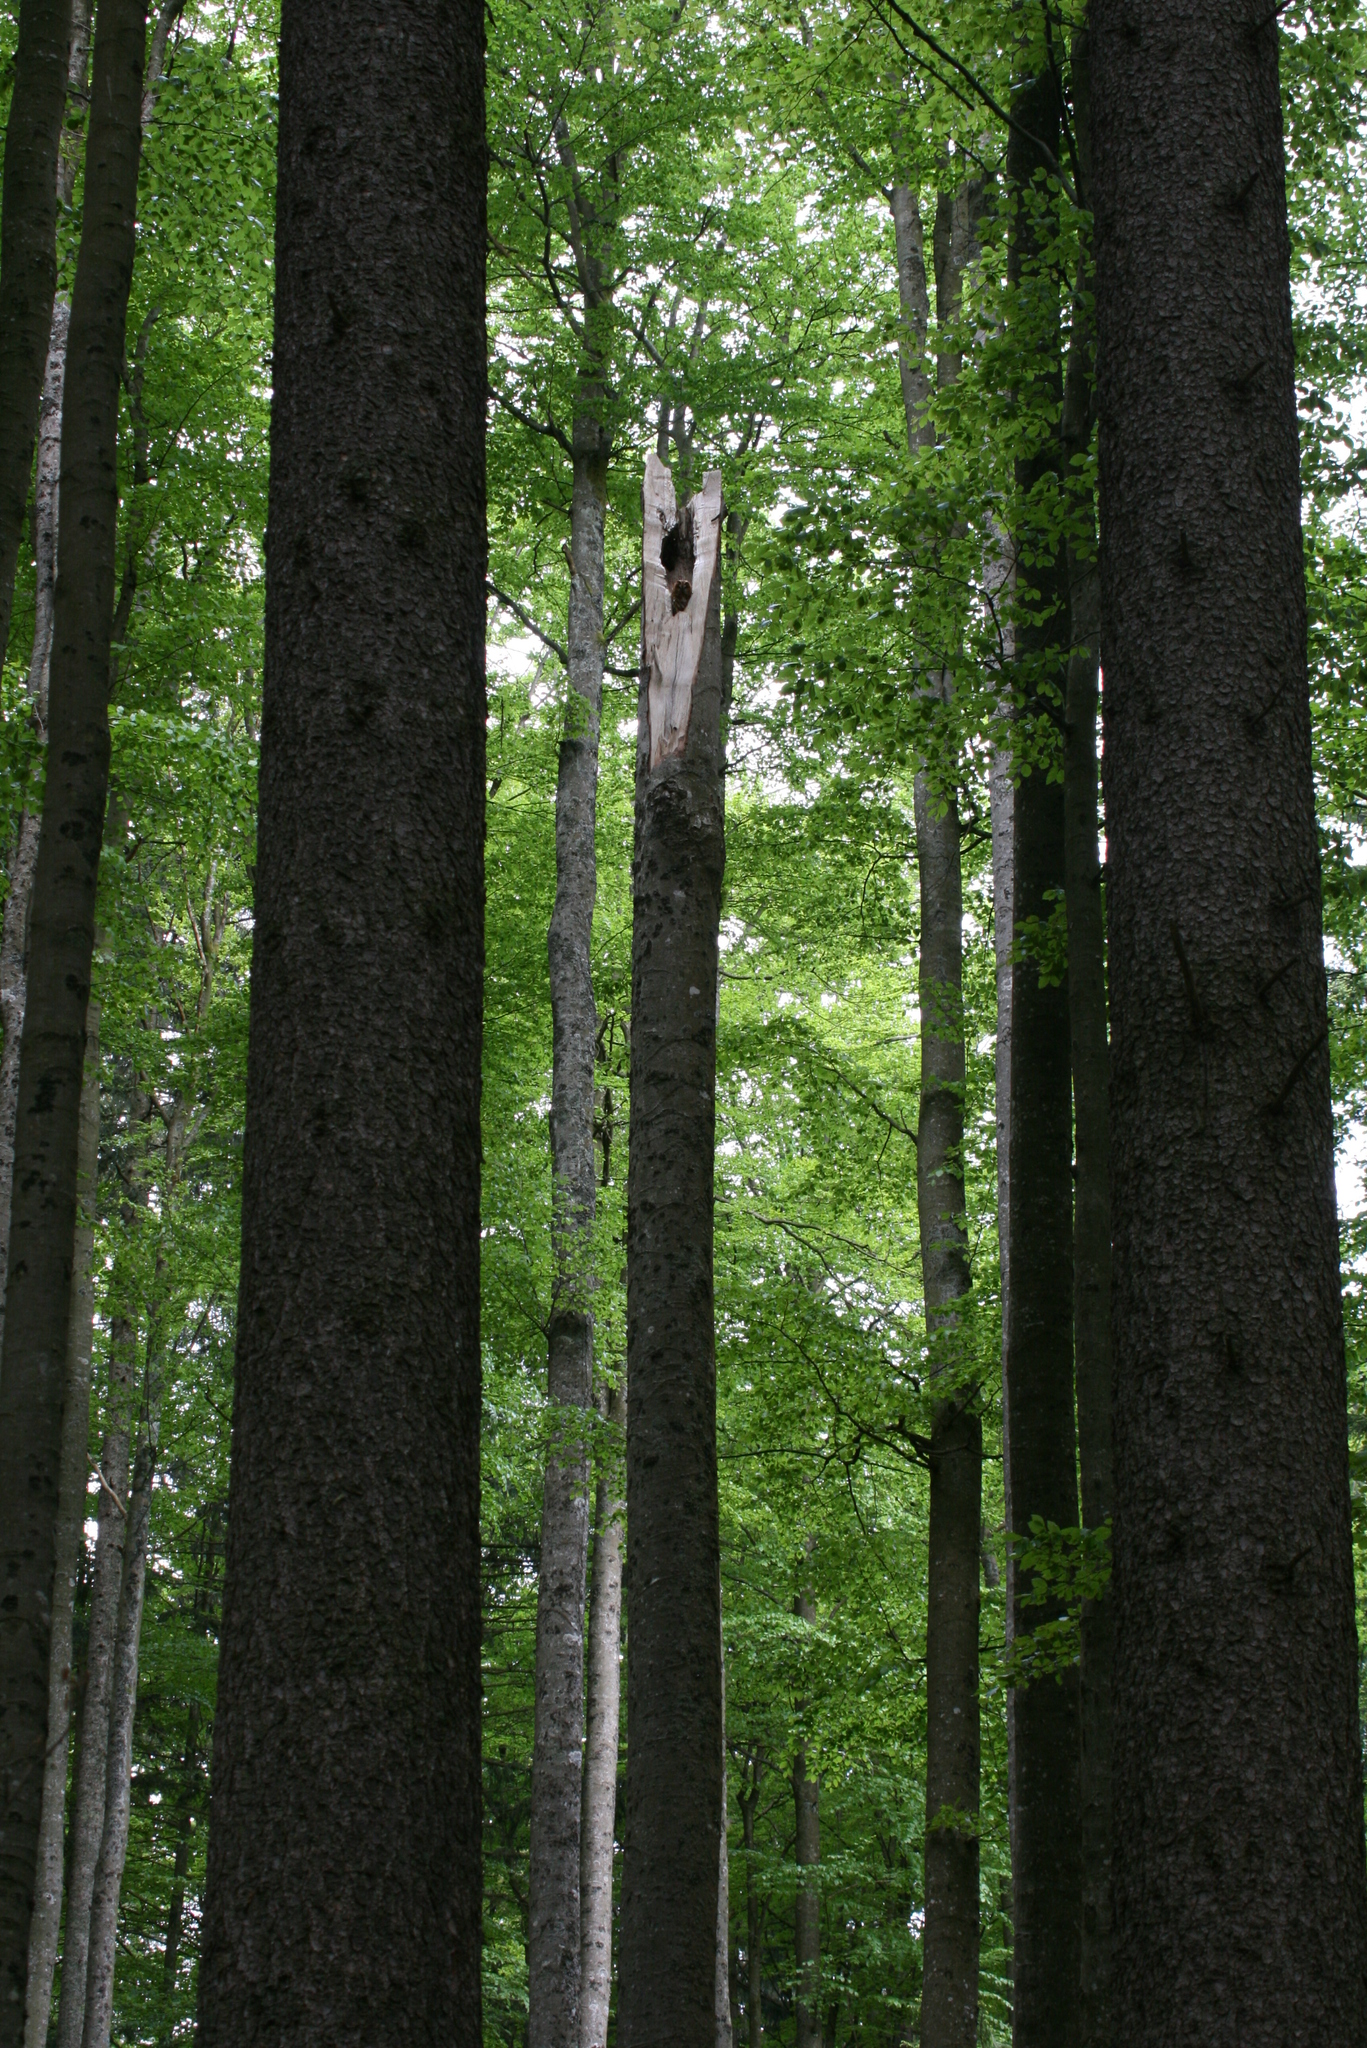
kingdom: Animalia
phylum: Chordata
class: Aves
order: Strigiformes
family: Strigidae
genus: Strix
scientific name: Strix aluco
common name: Tawny owl
